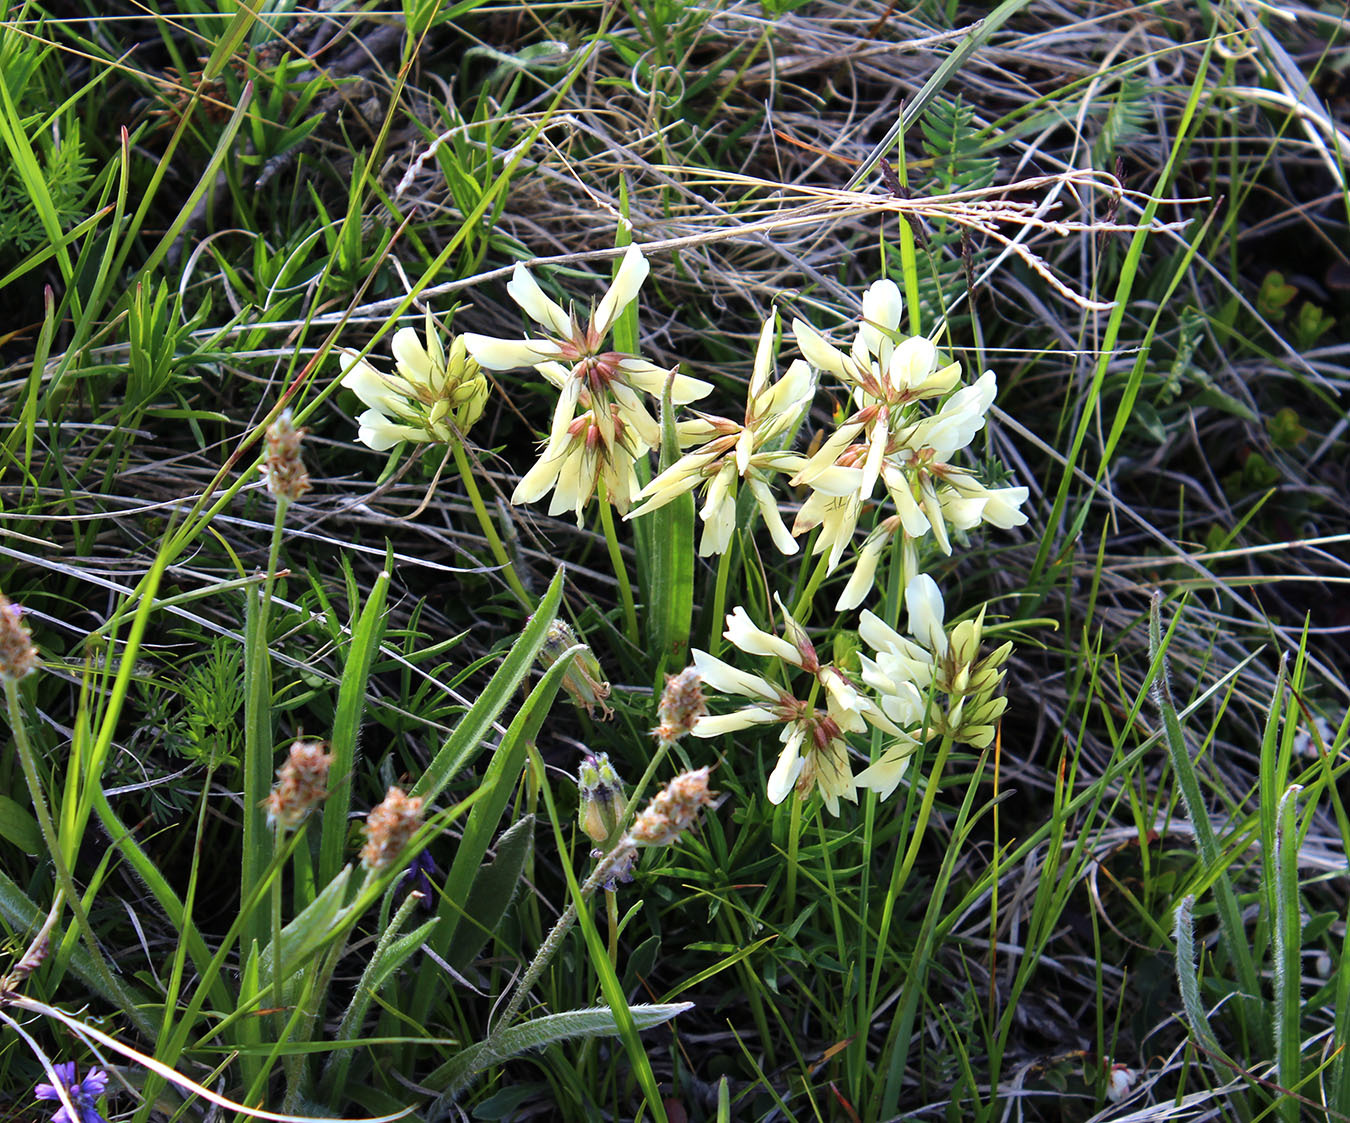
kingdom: Plantae
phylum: Tracheophyta
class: Magnoliopsida
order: Fabales
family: Fabaceae
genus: Trifolium
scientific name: Trifolium polyphyllum
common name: Many-leaf clover
